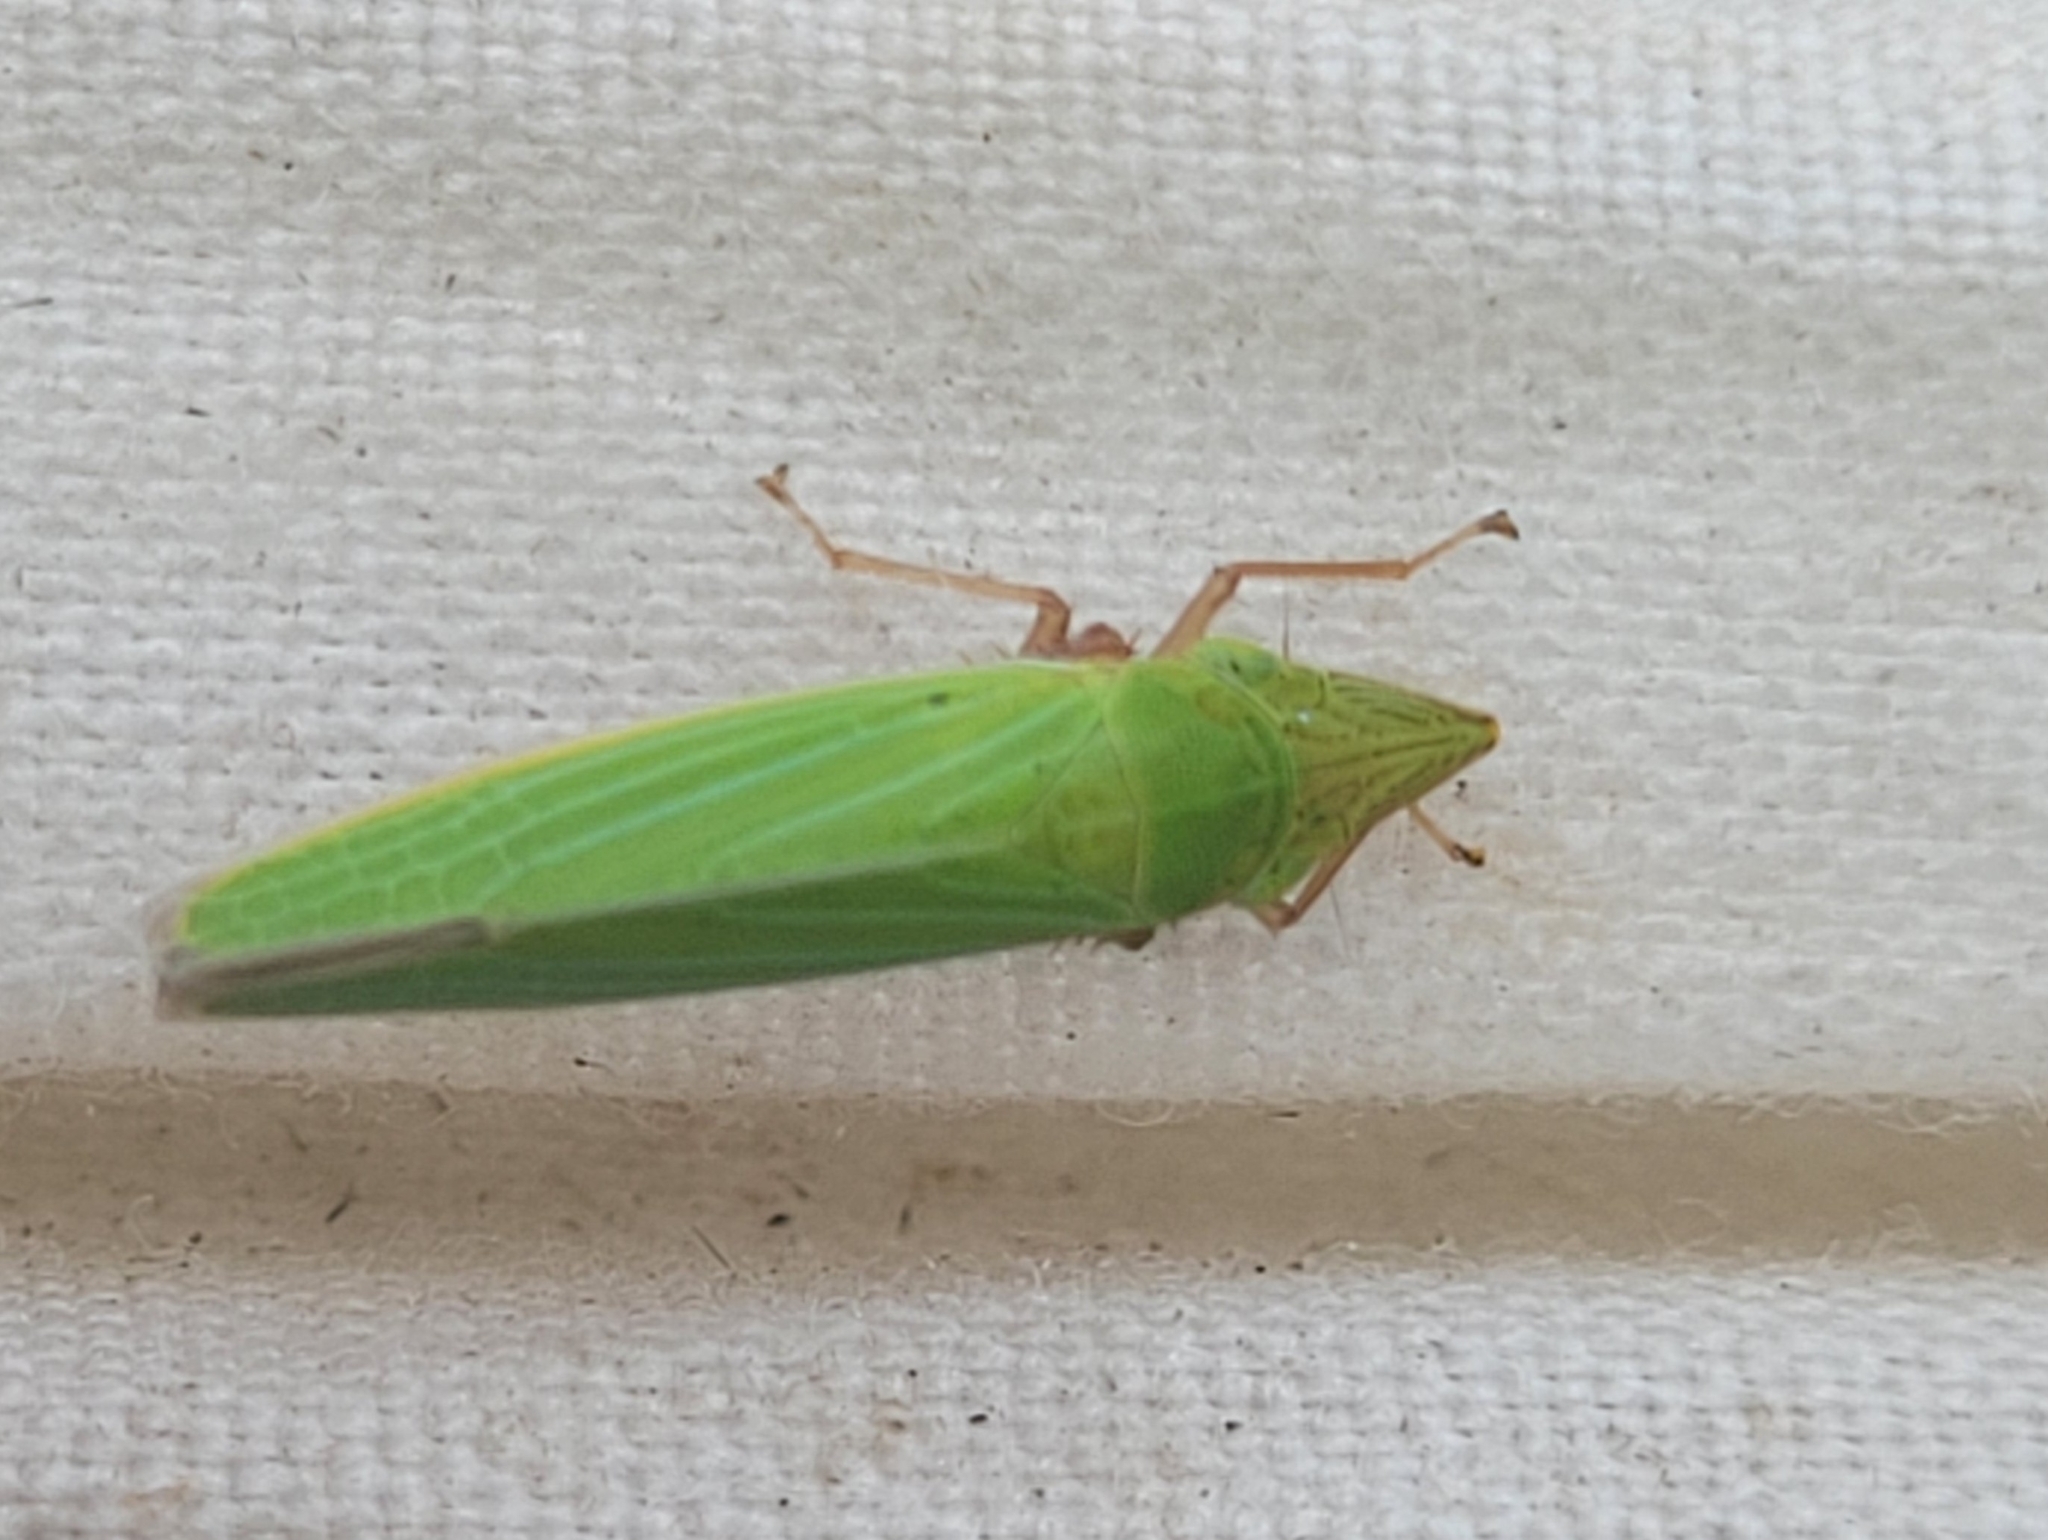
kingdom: Animalia
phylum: Arthropoda
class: Insecta
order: Hemiptera
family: Cicadellidae
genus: Draeculacephala
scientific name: Draeculacephala robinsoni
